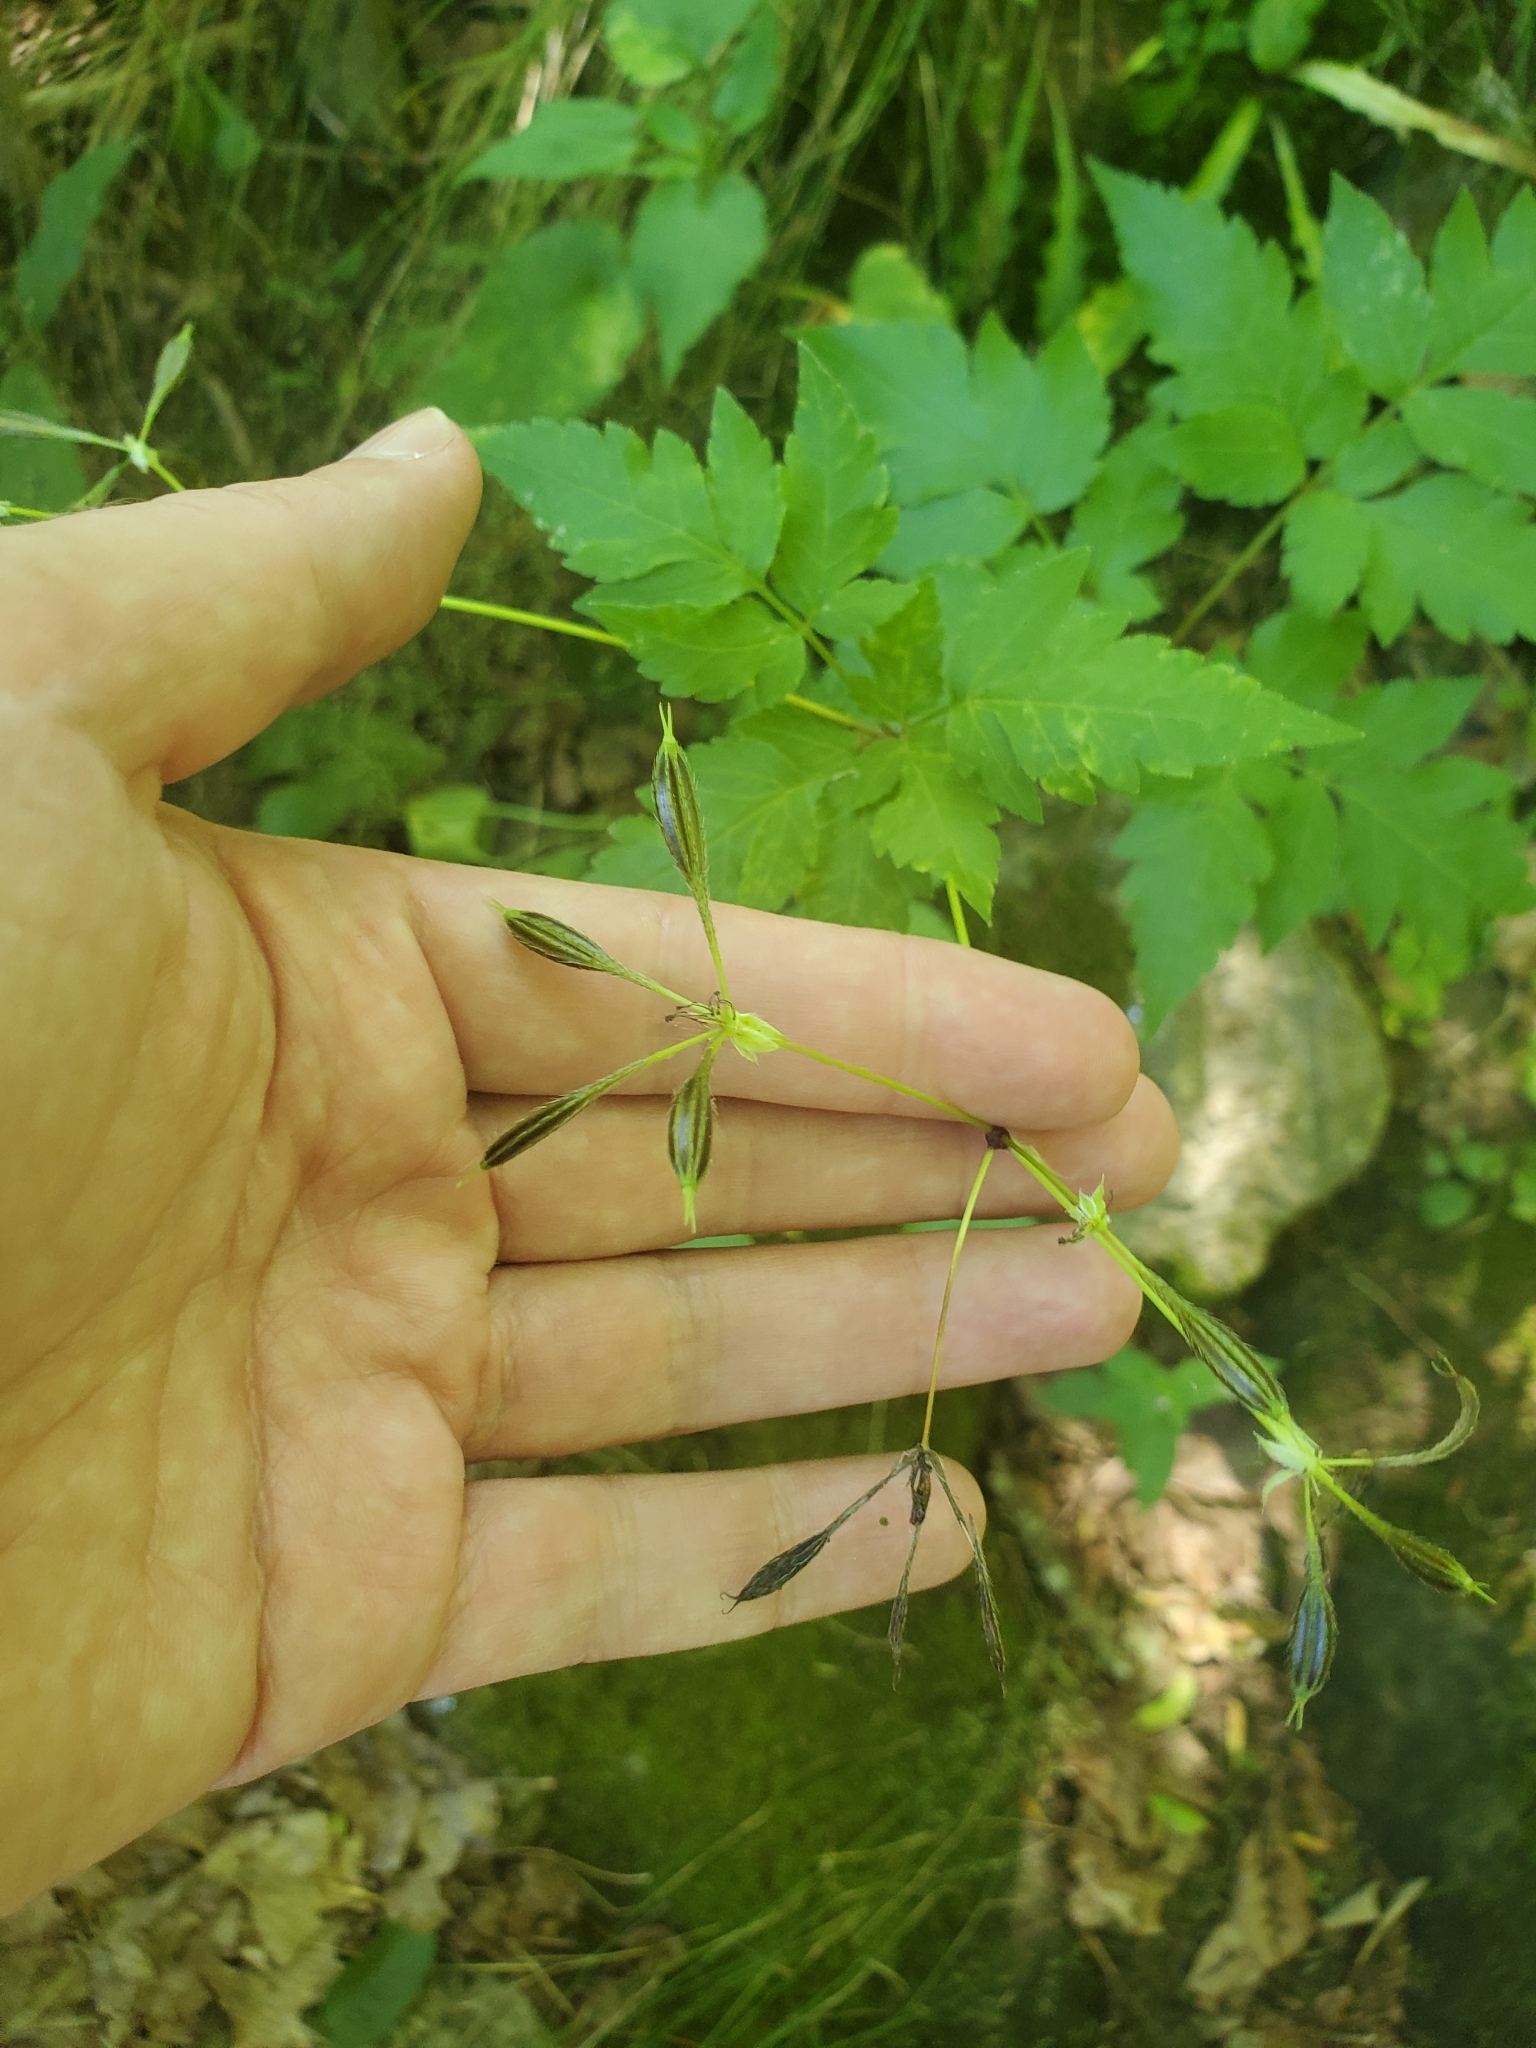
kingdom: Plantae
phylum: Tracheophyta
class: Magnoliopsida
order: Apiales
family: Apiaceae
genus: Osmorhiza
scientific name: Osmorhiza longistylis
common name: Smooth sweet cicely
